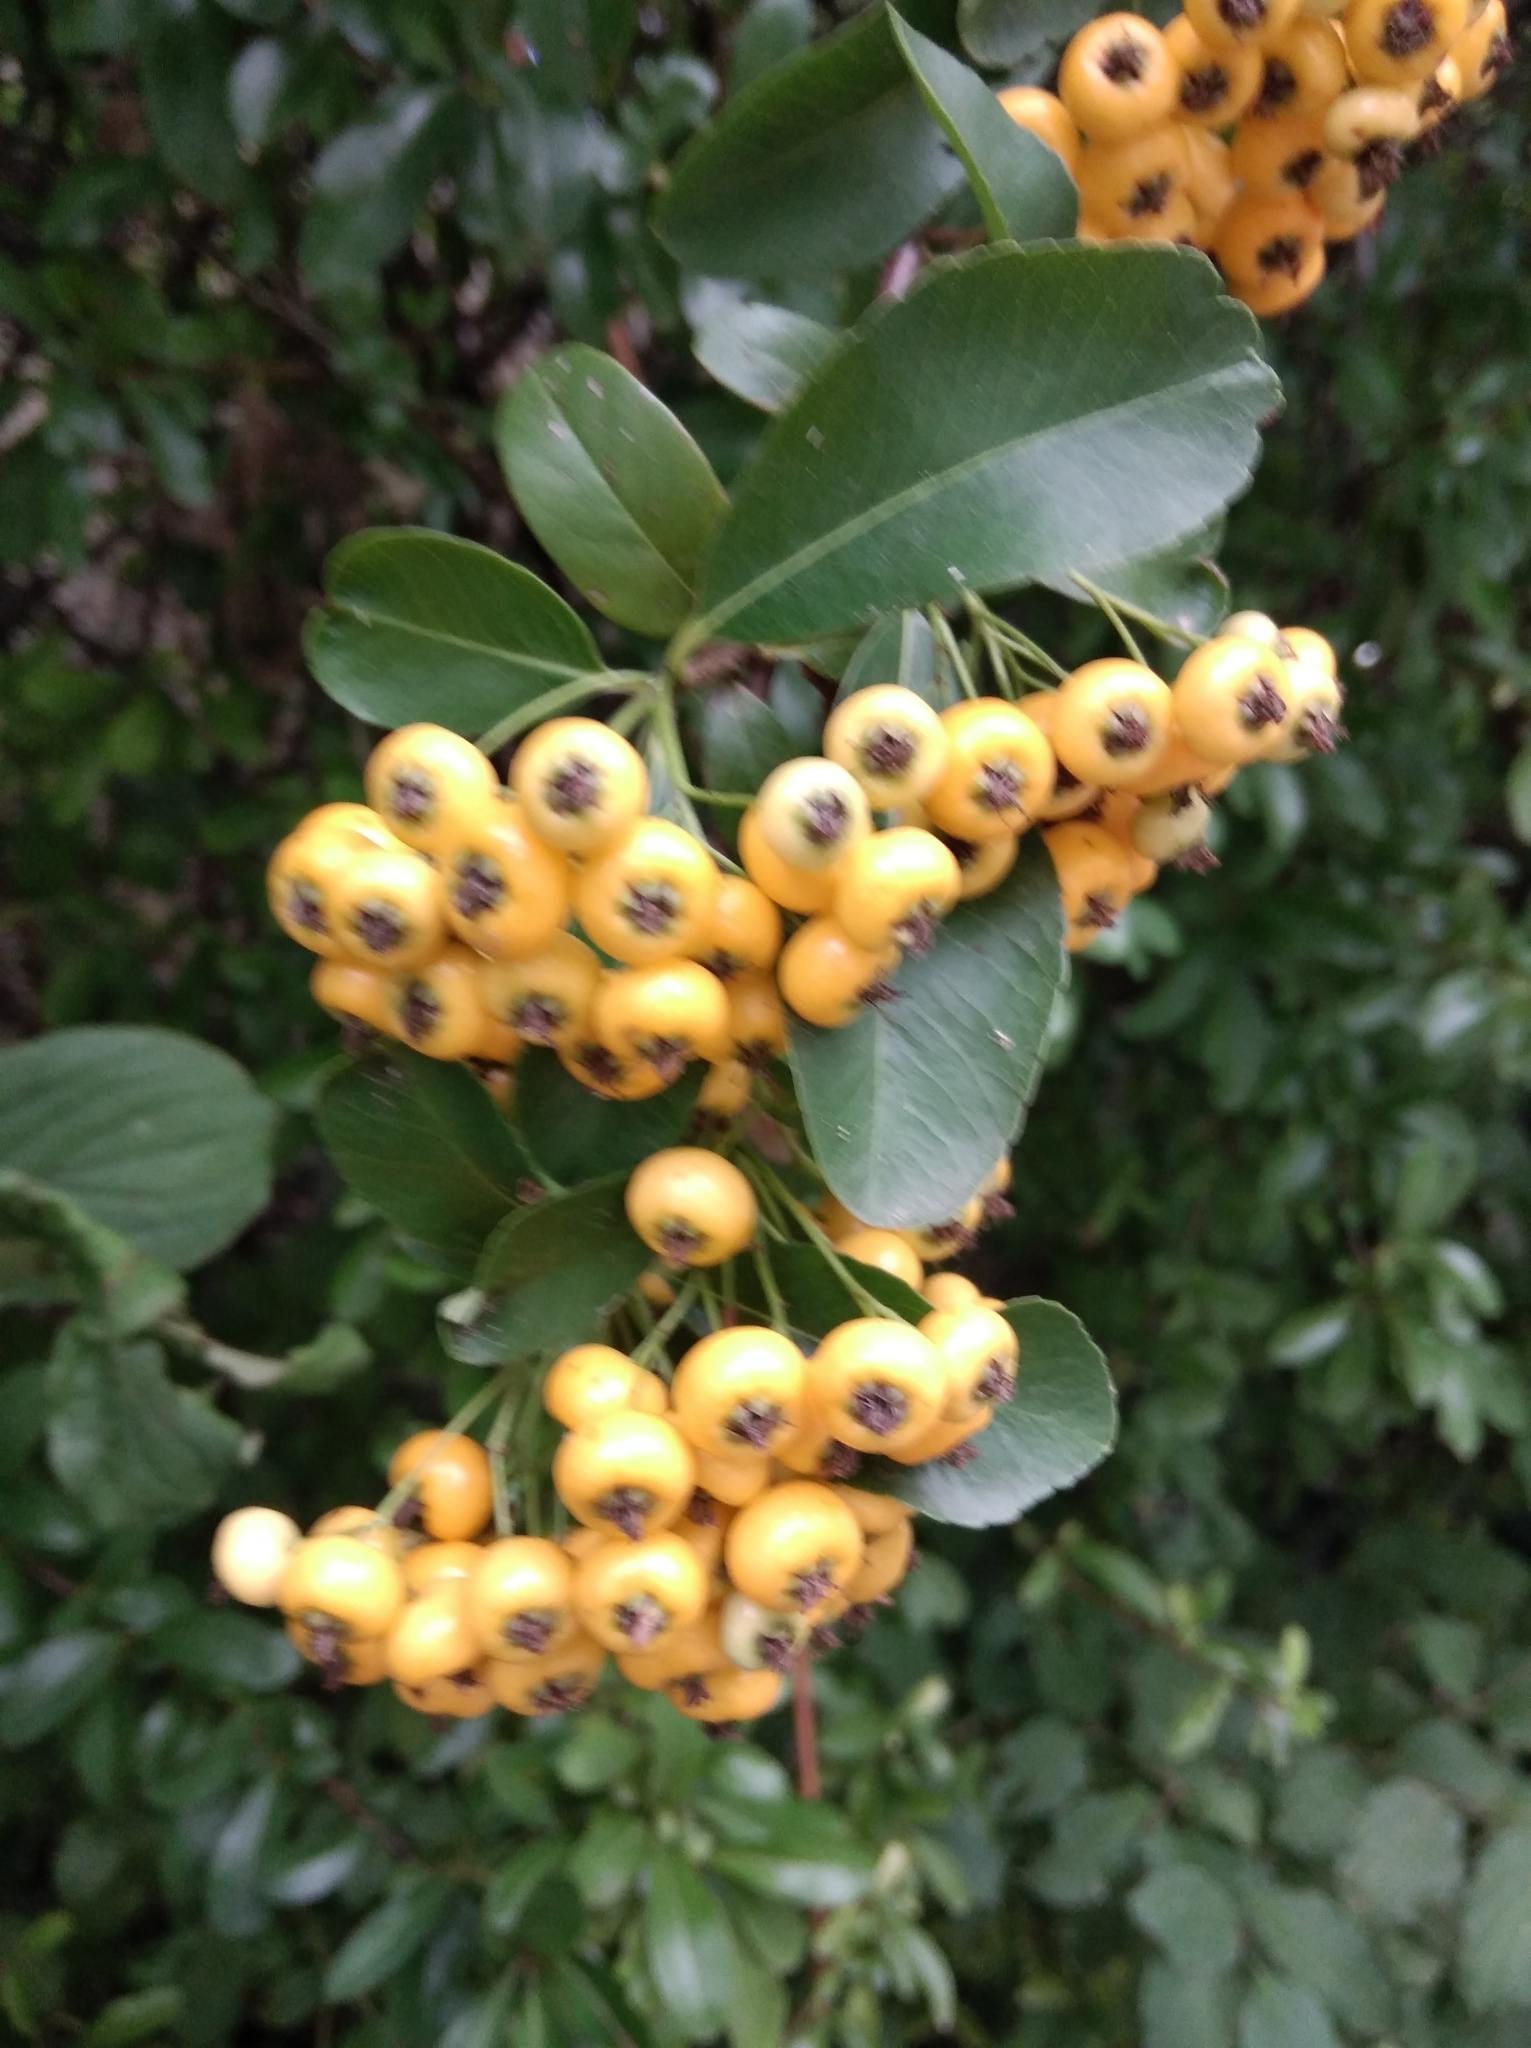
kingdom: Plantae
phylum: Tracheophyta
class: Magnoliopsida
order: Rosales
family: Rosaceae
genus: Pyracantha
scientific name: Pyracantha coccinea
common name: Firethorn
